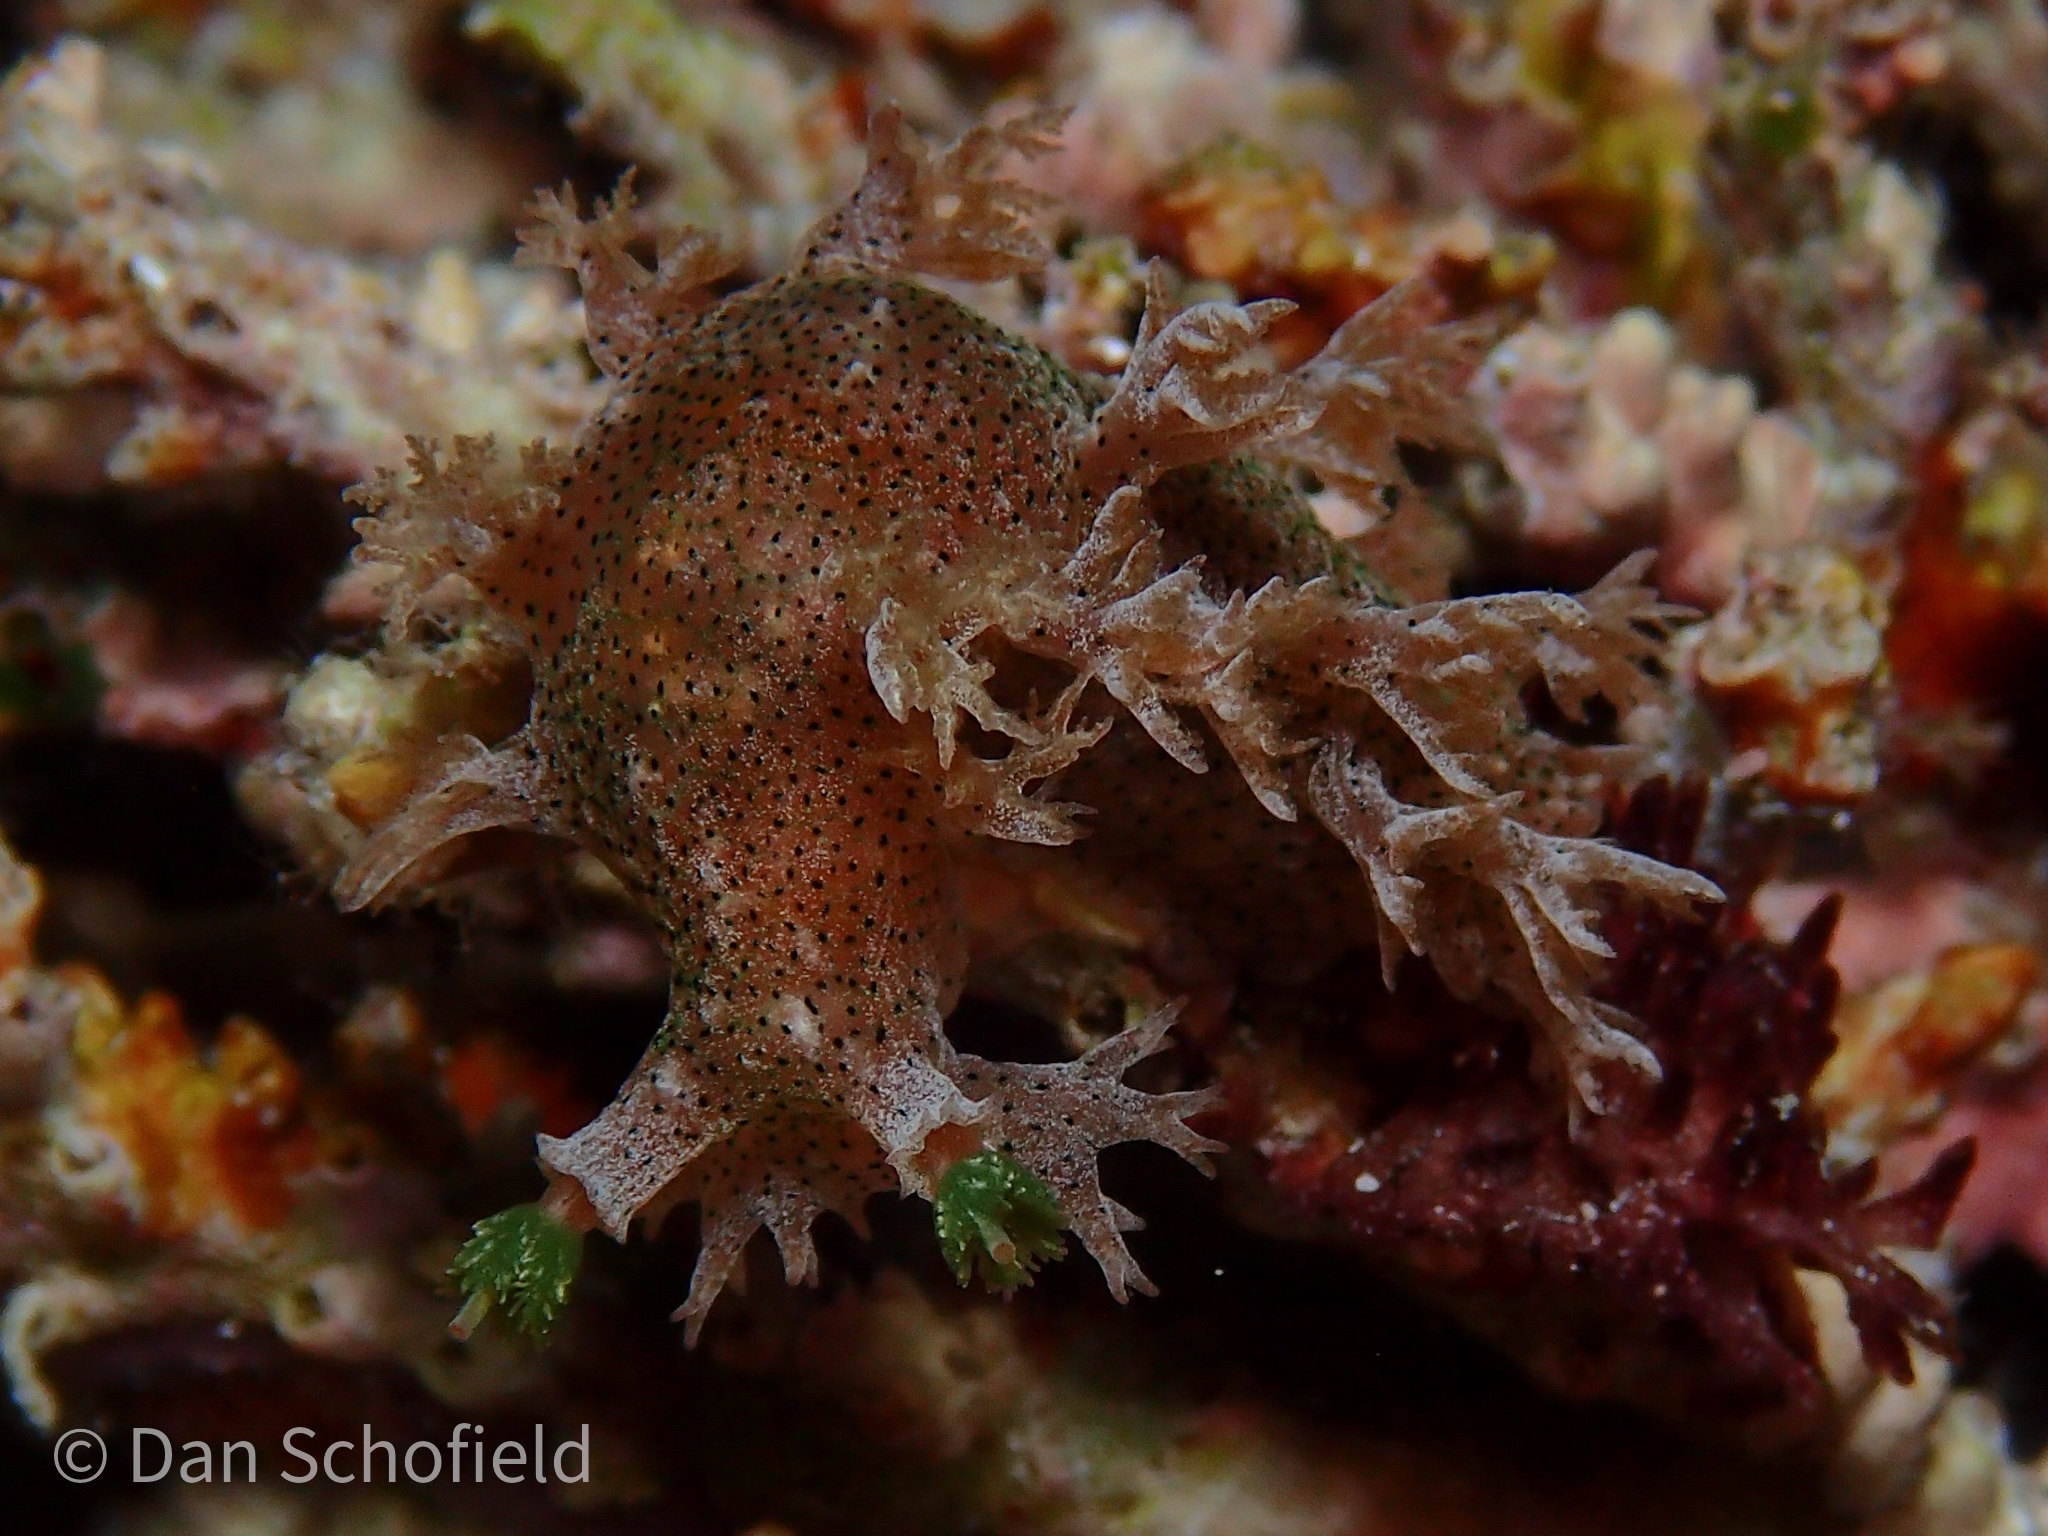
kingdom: Animalia
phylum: Mollusca
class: Gastropoda
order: Nudibranchia
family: Tritoniidae
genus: Tritonia
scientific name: Tritonia
